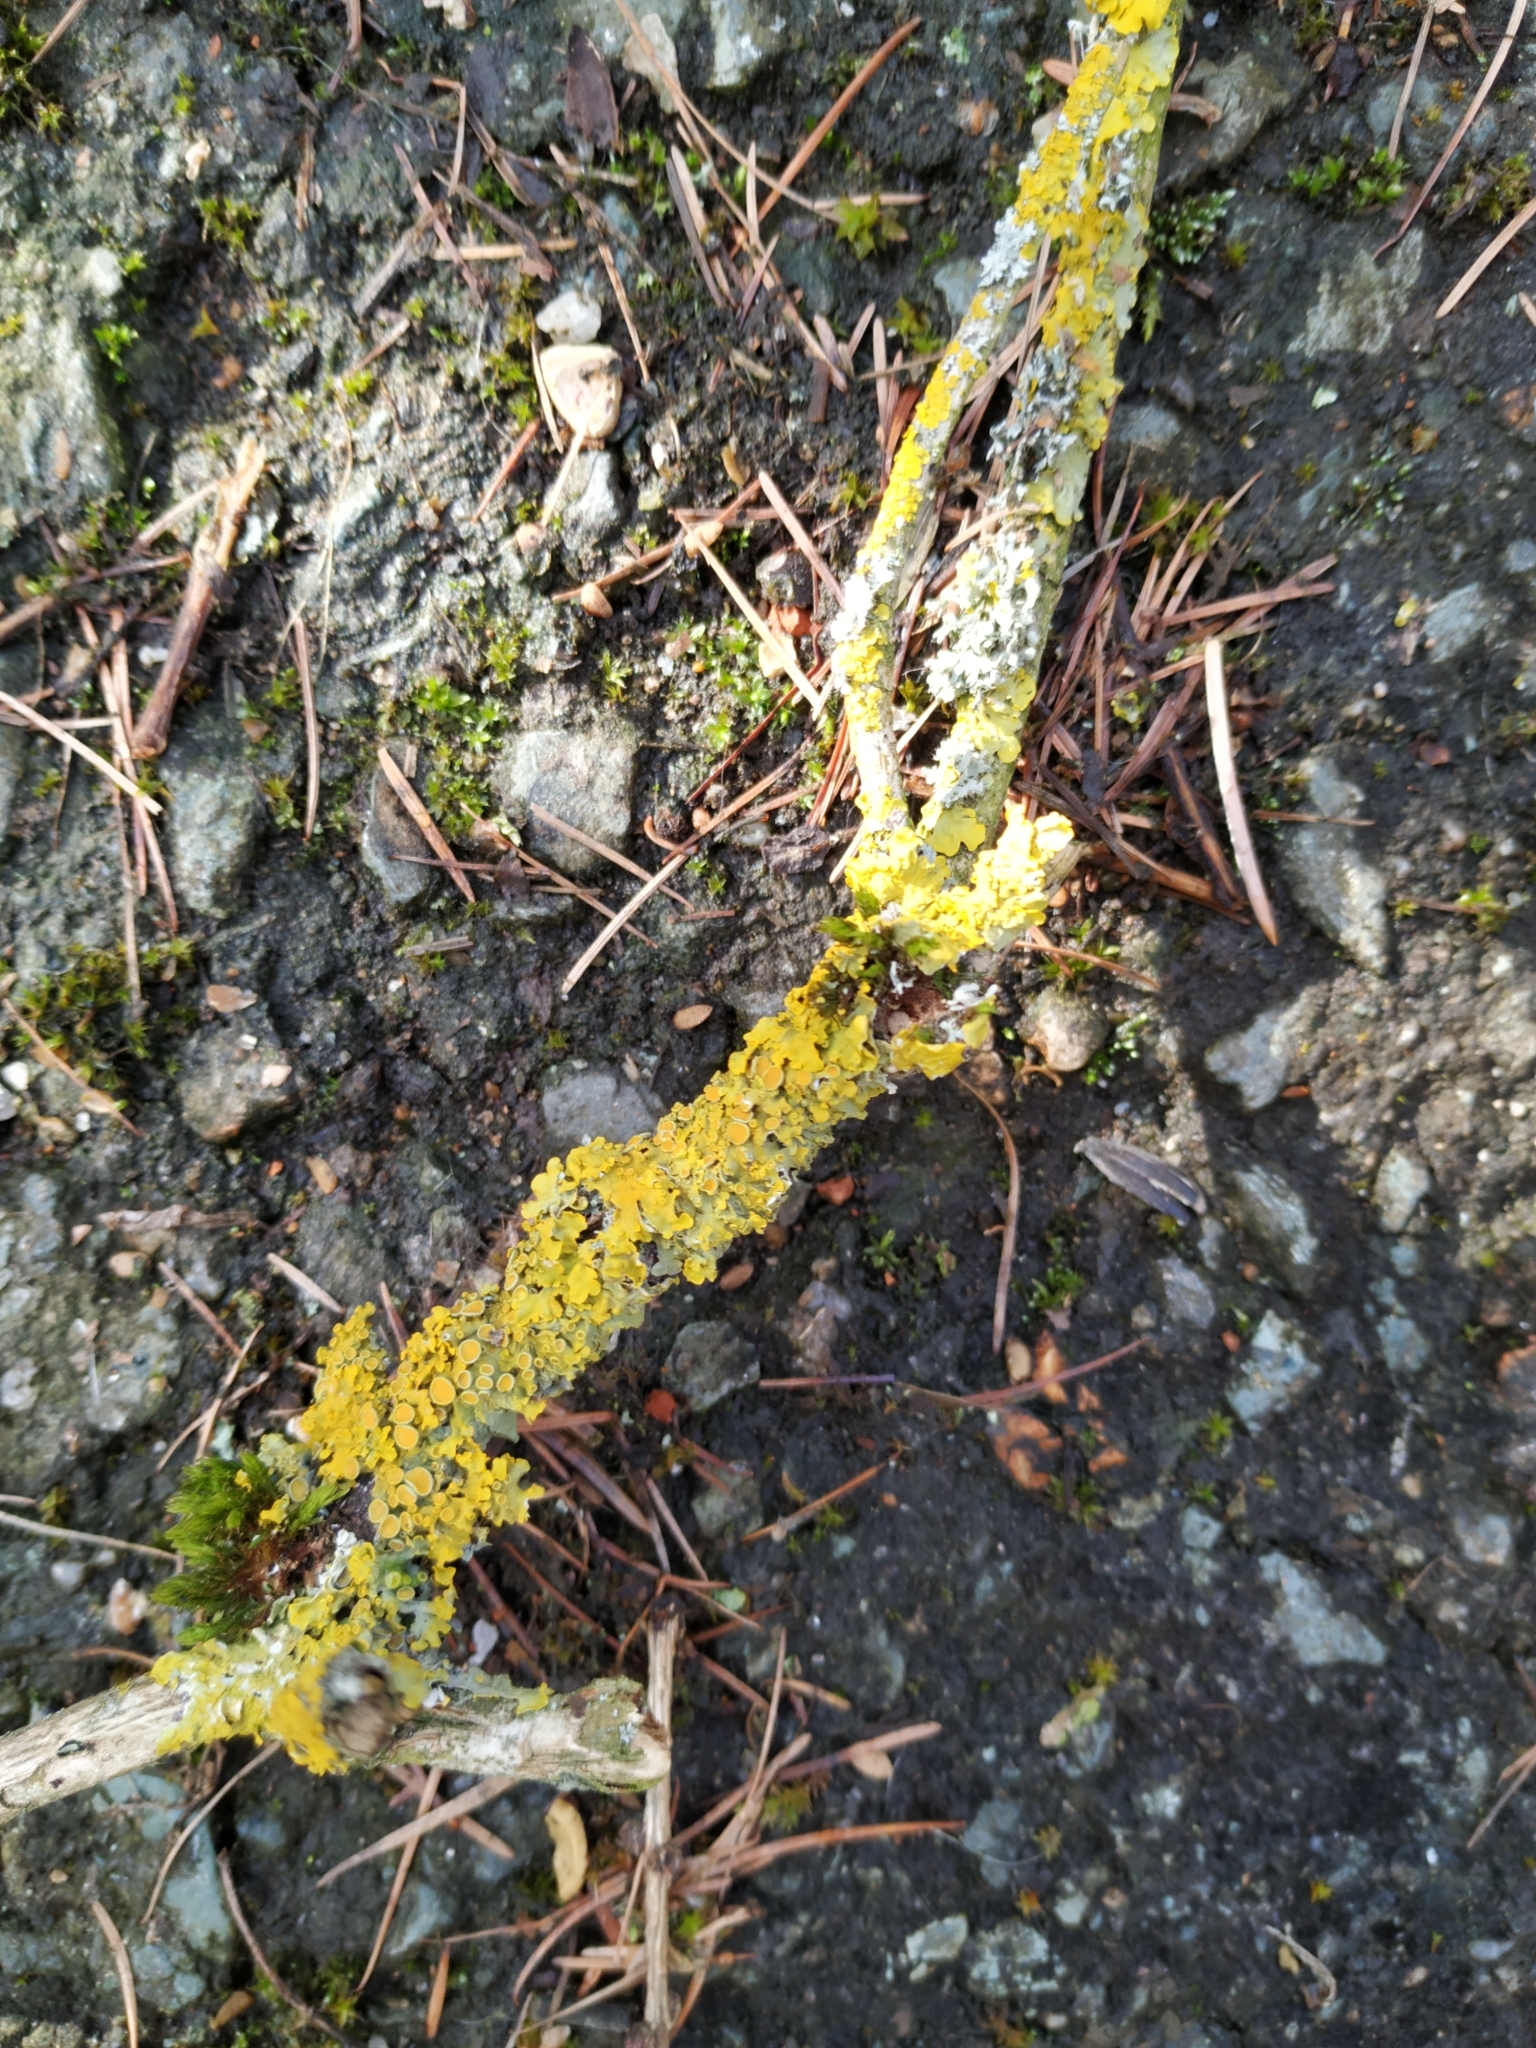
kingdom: Fungi
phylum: Ascomycota
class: Lecanoromycetes
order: Teloschistales
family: Teloschistaceae
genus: Xanthoria
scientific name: Xanthoria parietina
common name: Common orange lichen
